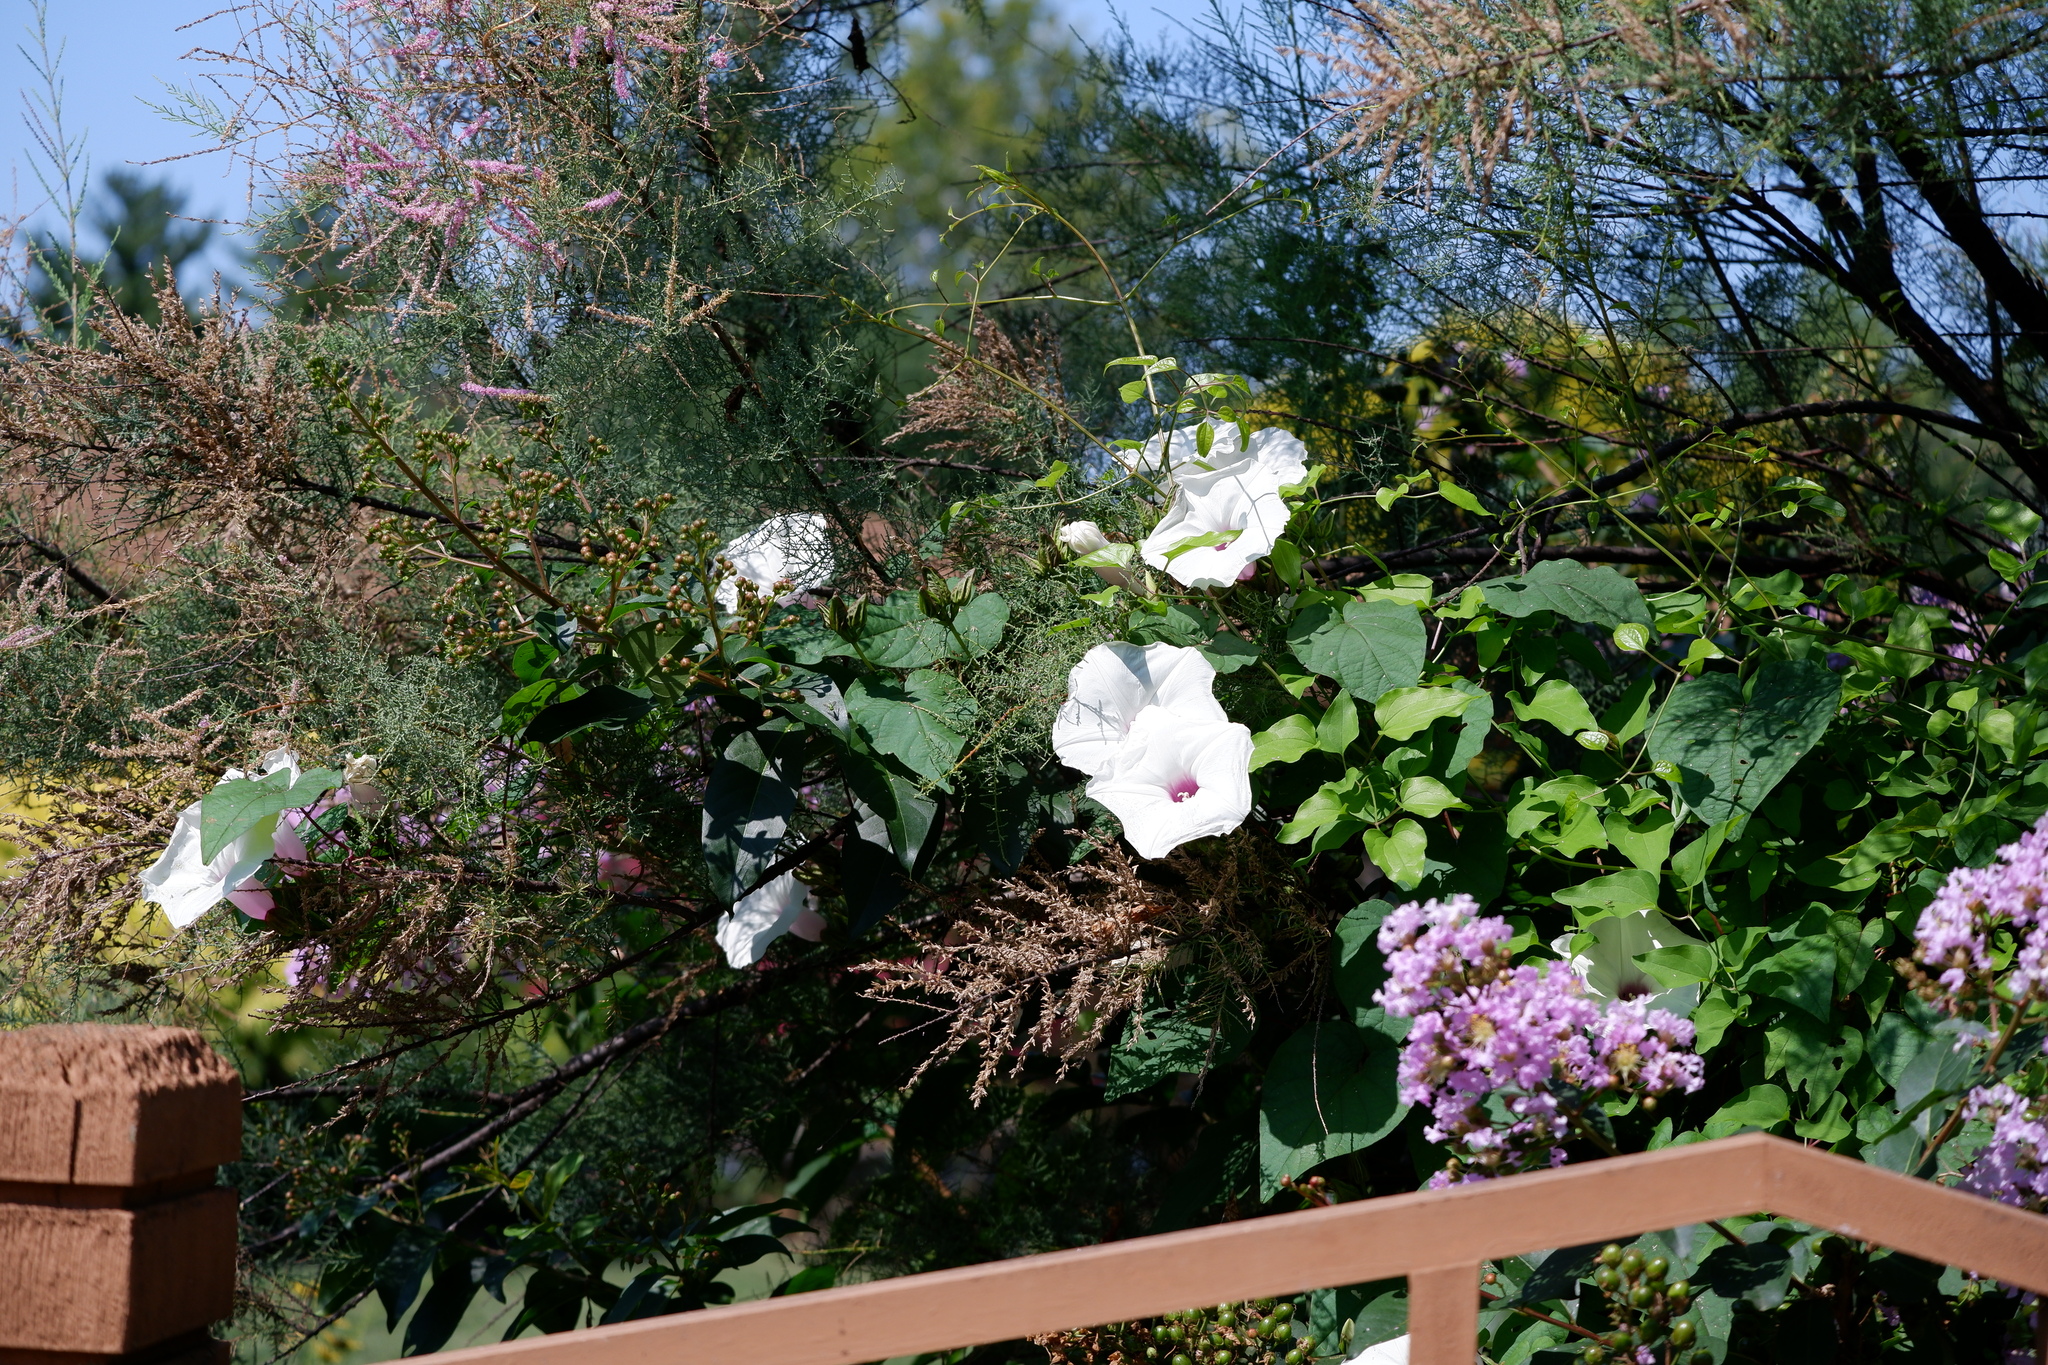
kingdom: Plantae
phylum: Tracheophyta
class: Magnoliopsida
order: Solanales
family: Convolvulaceae
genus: Ipomoea
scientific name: Ipomoea pandurata
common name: Man-of-the-earth
